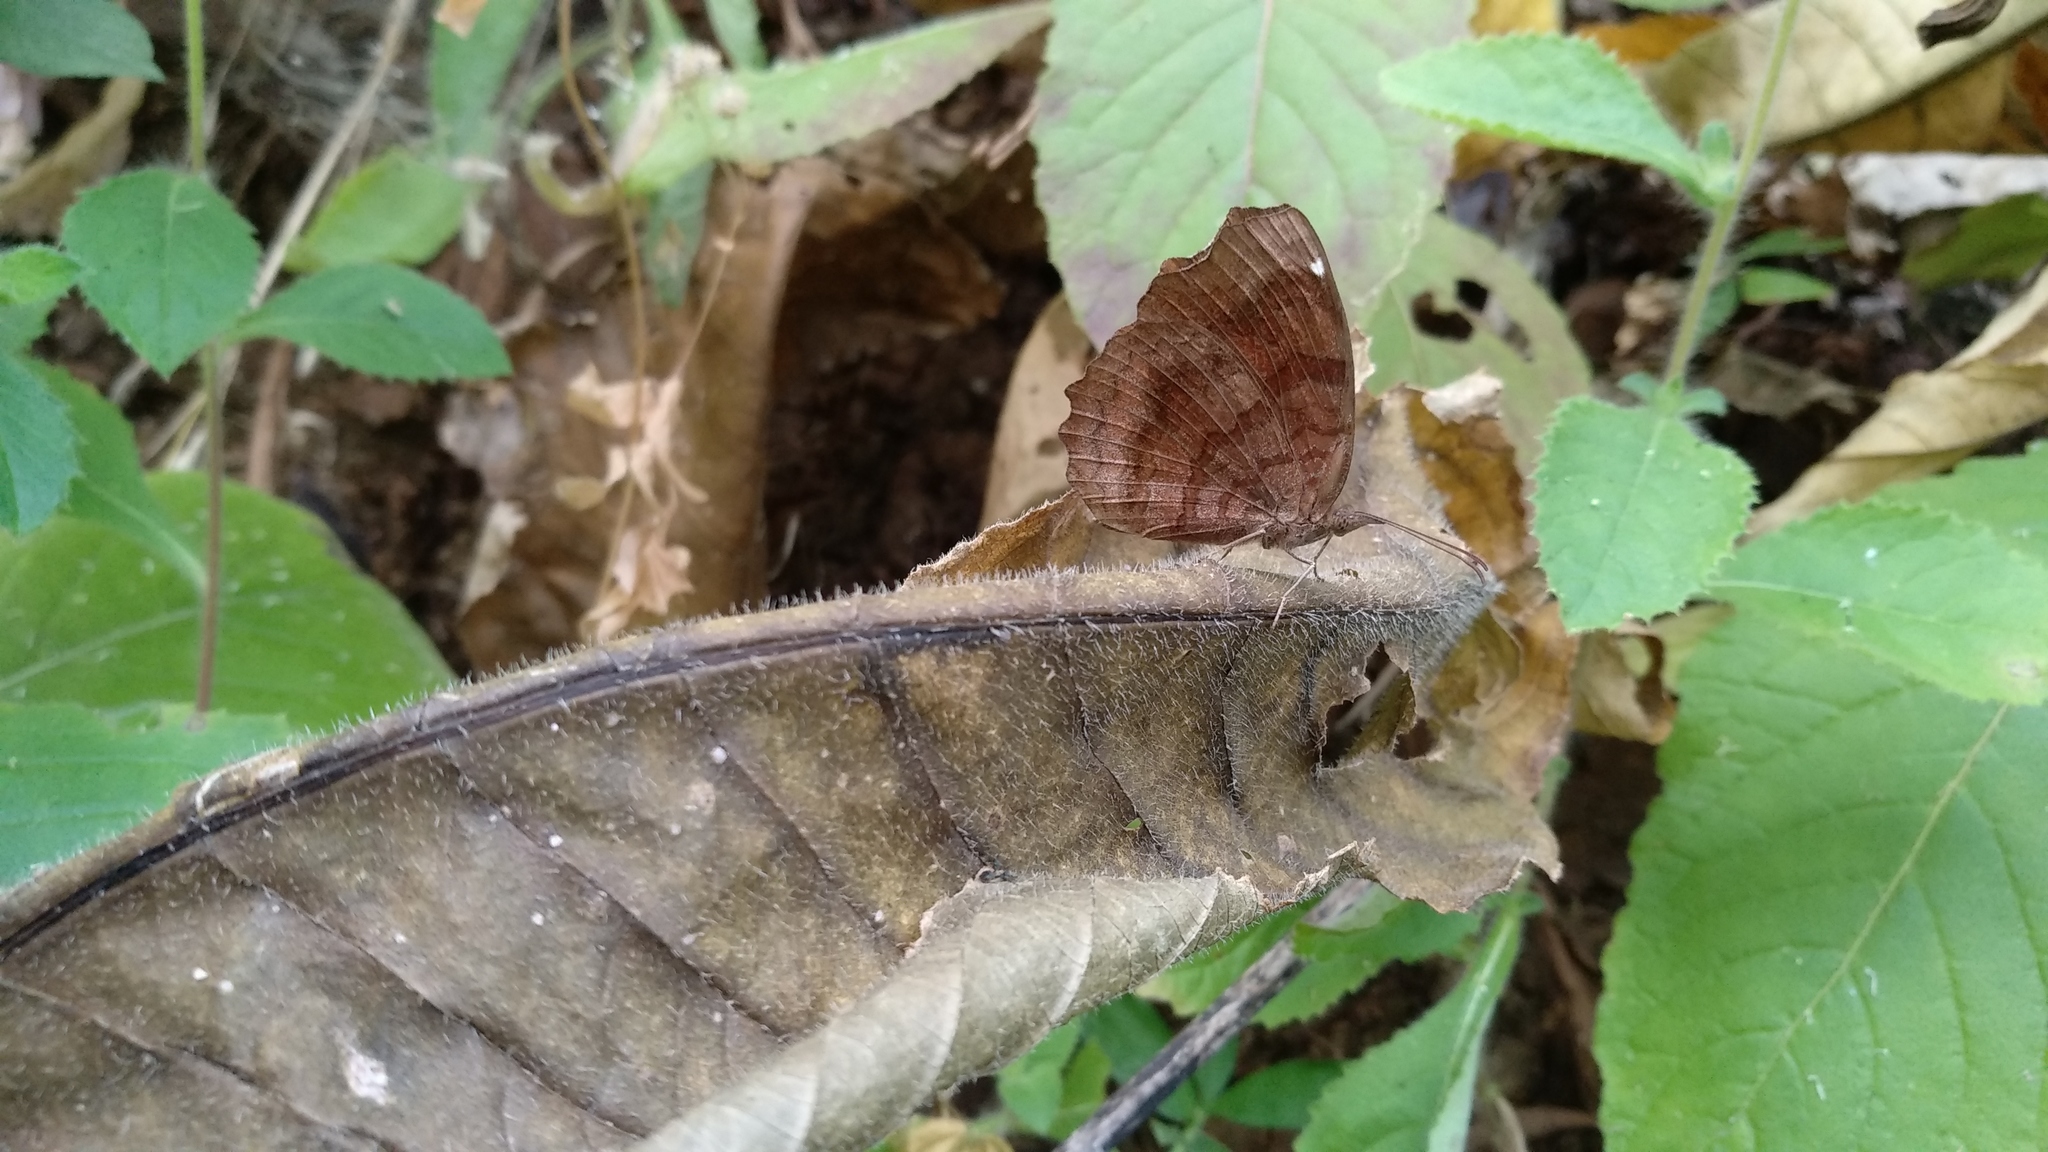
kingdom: Animalia
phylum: Arthropoda
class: Insecta
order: Lepidoptera
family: Nymphalidae
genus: Ariadne
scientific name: Ariadne ariadne
